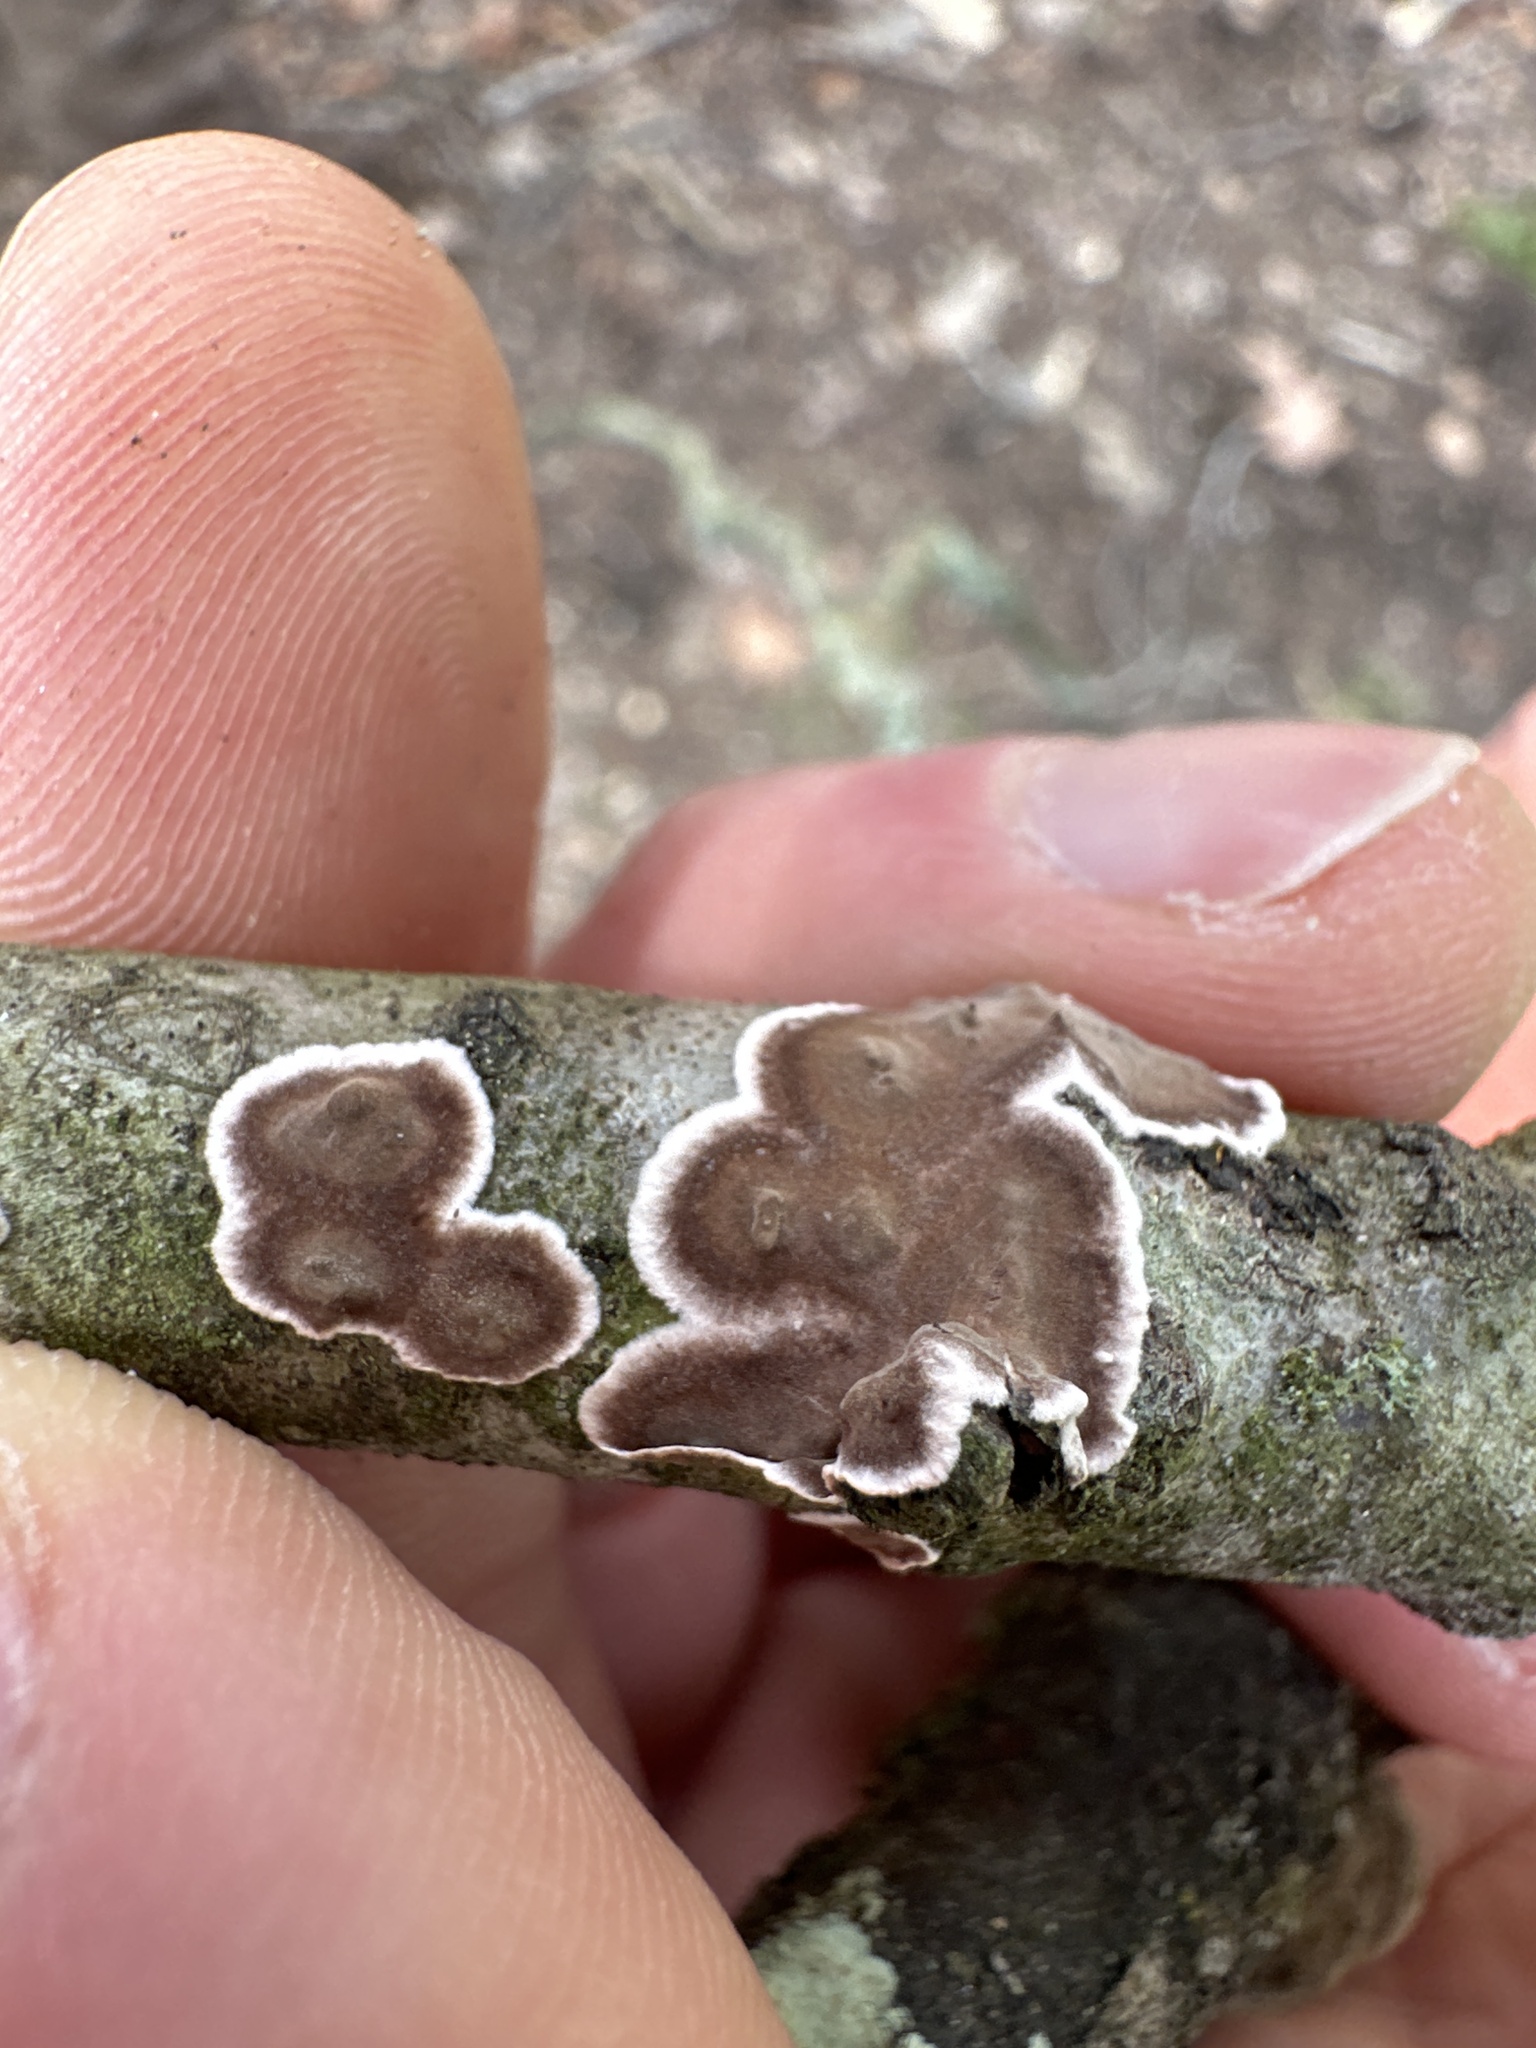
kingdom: Fungi
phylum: Basidiomycota
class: Agaricomycetes
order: Russulales
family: Peniophoraceae
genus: Peniophora
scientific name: Peniophora albobadia
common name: Giraffe spots
